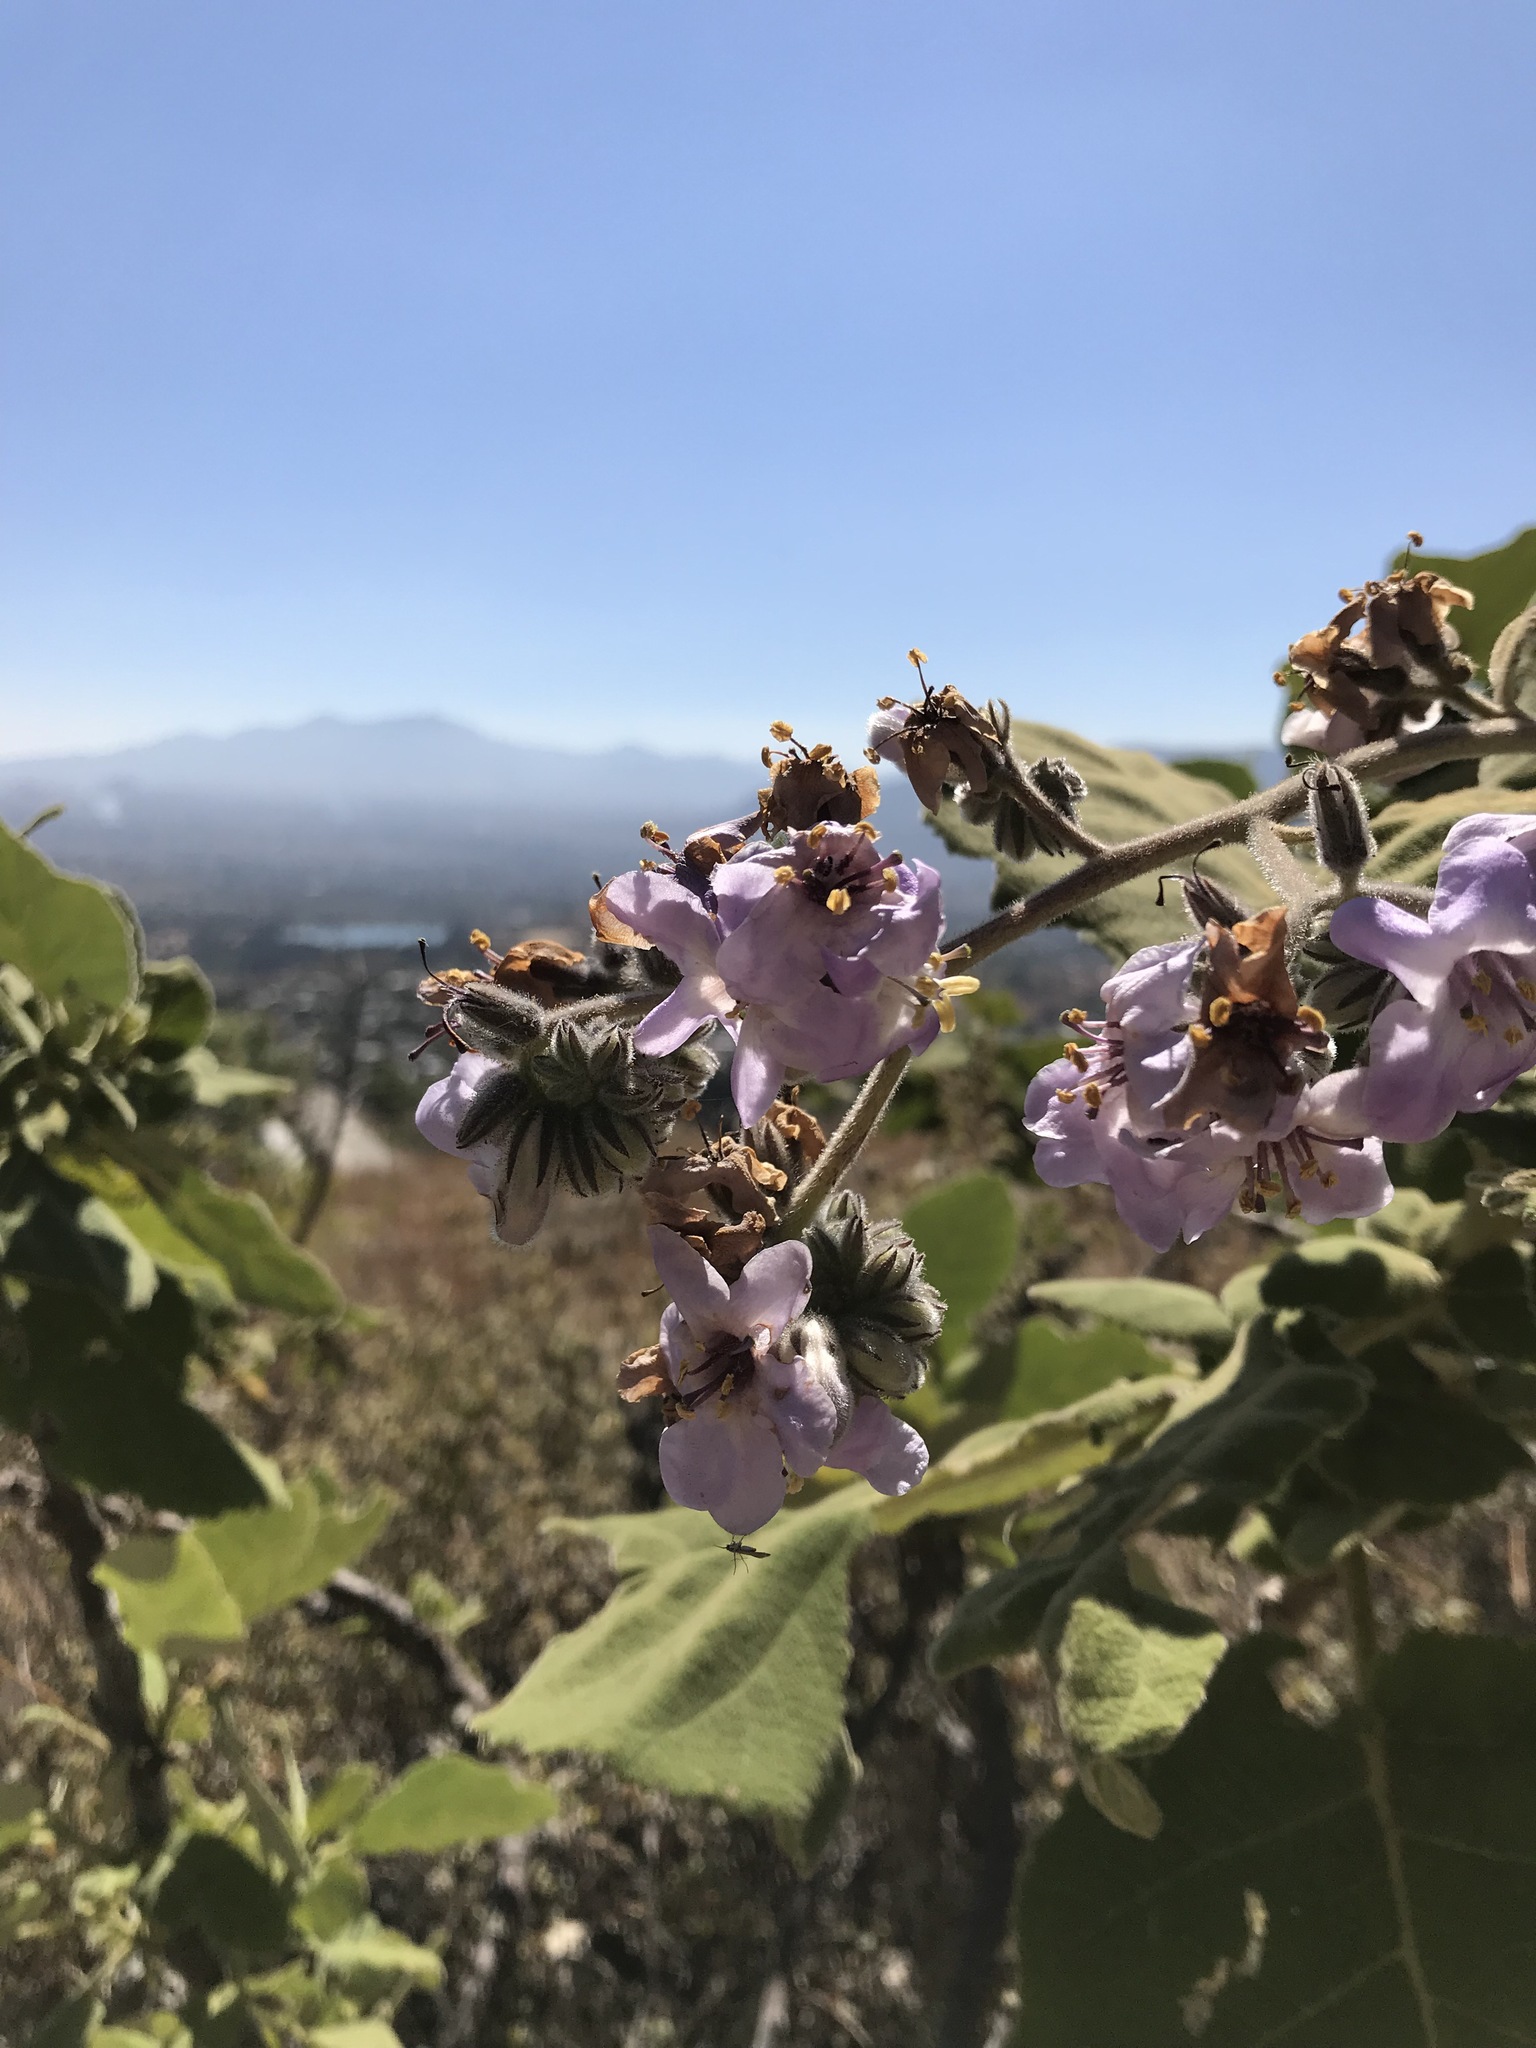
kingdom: Plantae
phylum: Tracheophyta
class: Magnoliopsida
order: Boraginales
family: Namaceae
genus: Wigandia
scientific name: Wigandia urens
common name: Caracus wigandia
